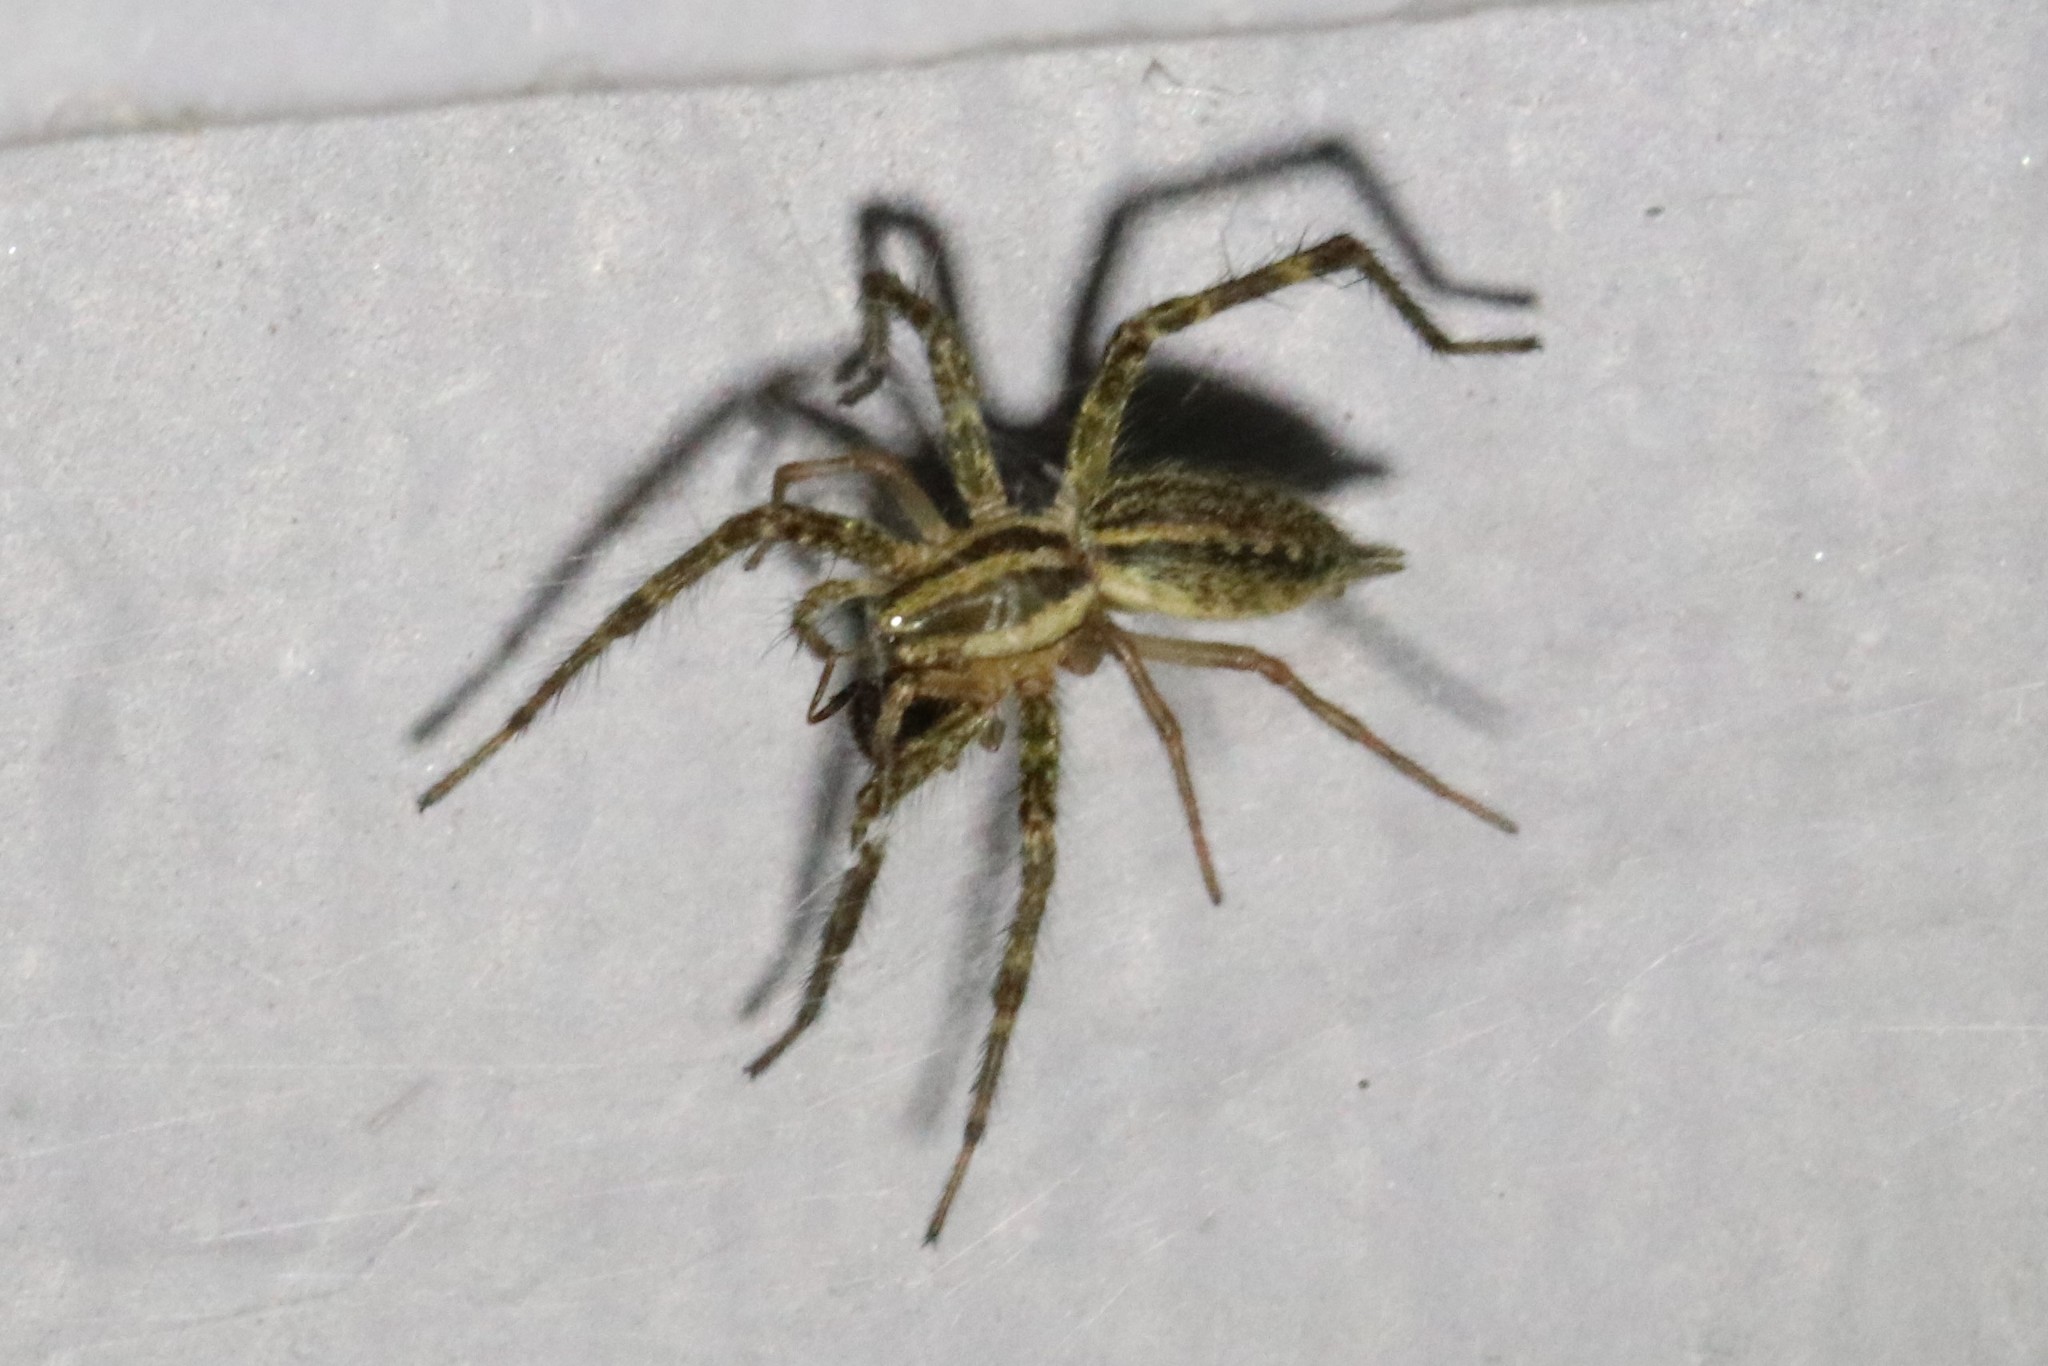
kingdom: Animalia
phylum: Arthropoda
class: Arachnida
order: Araneae
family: Agelenidae
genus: Agelenopsis
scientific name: Agelenopsis
